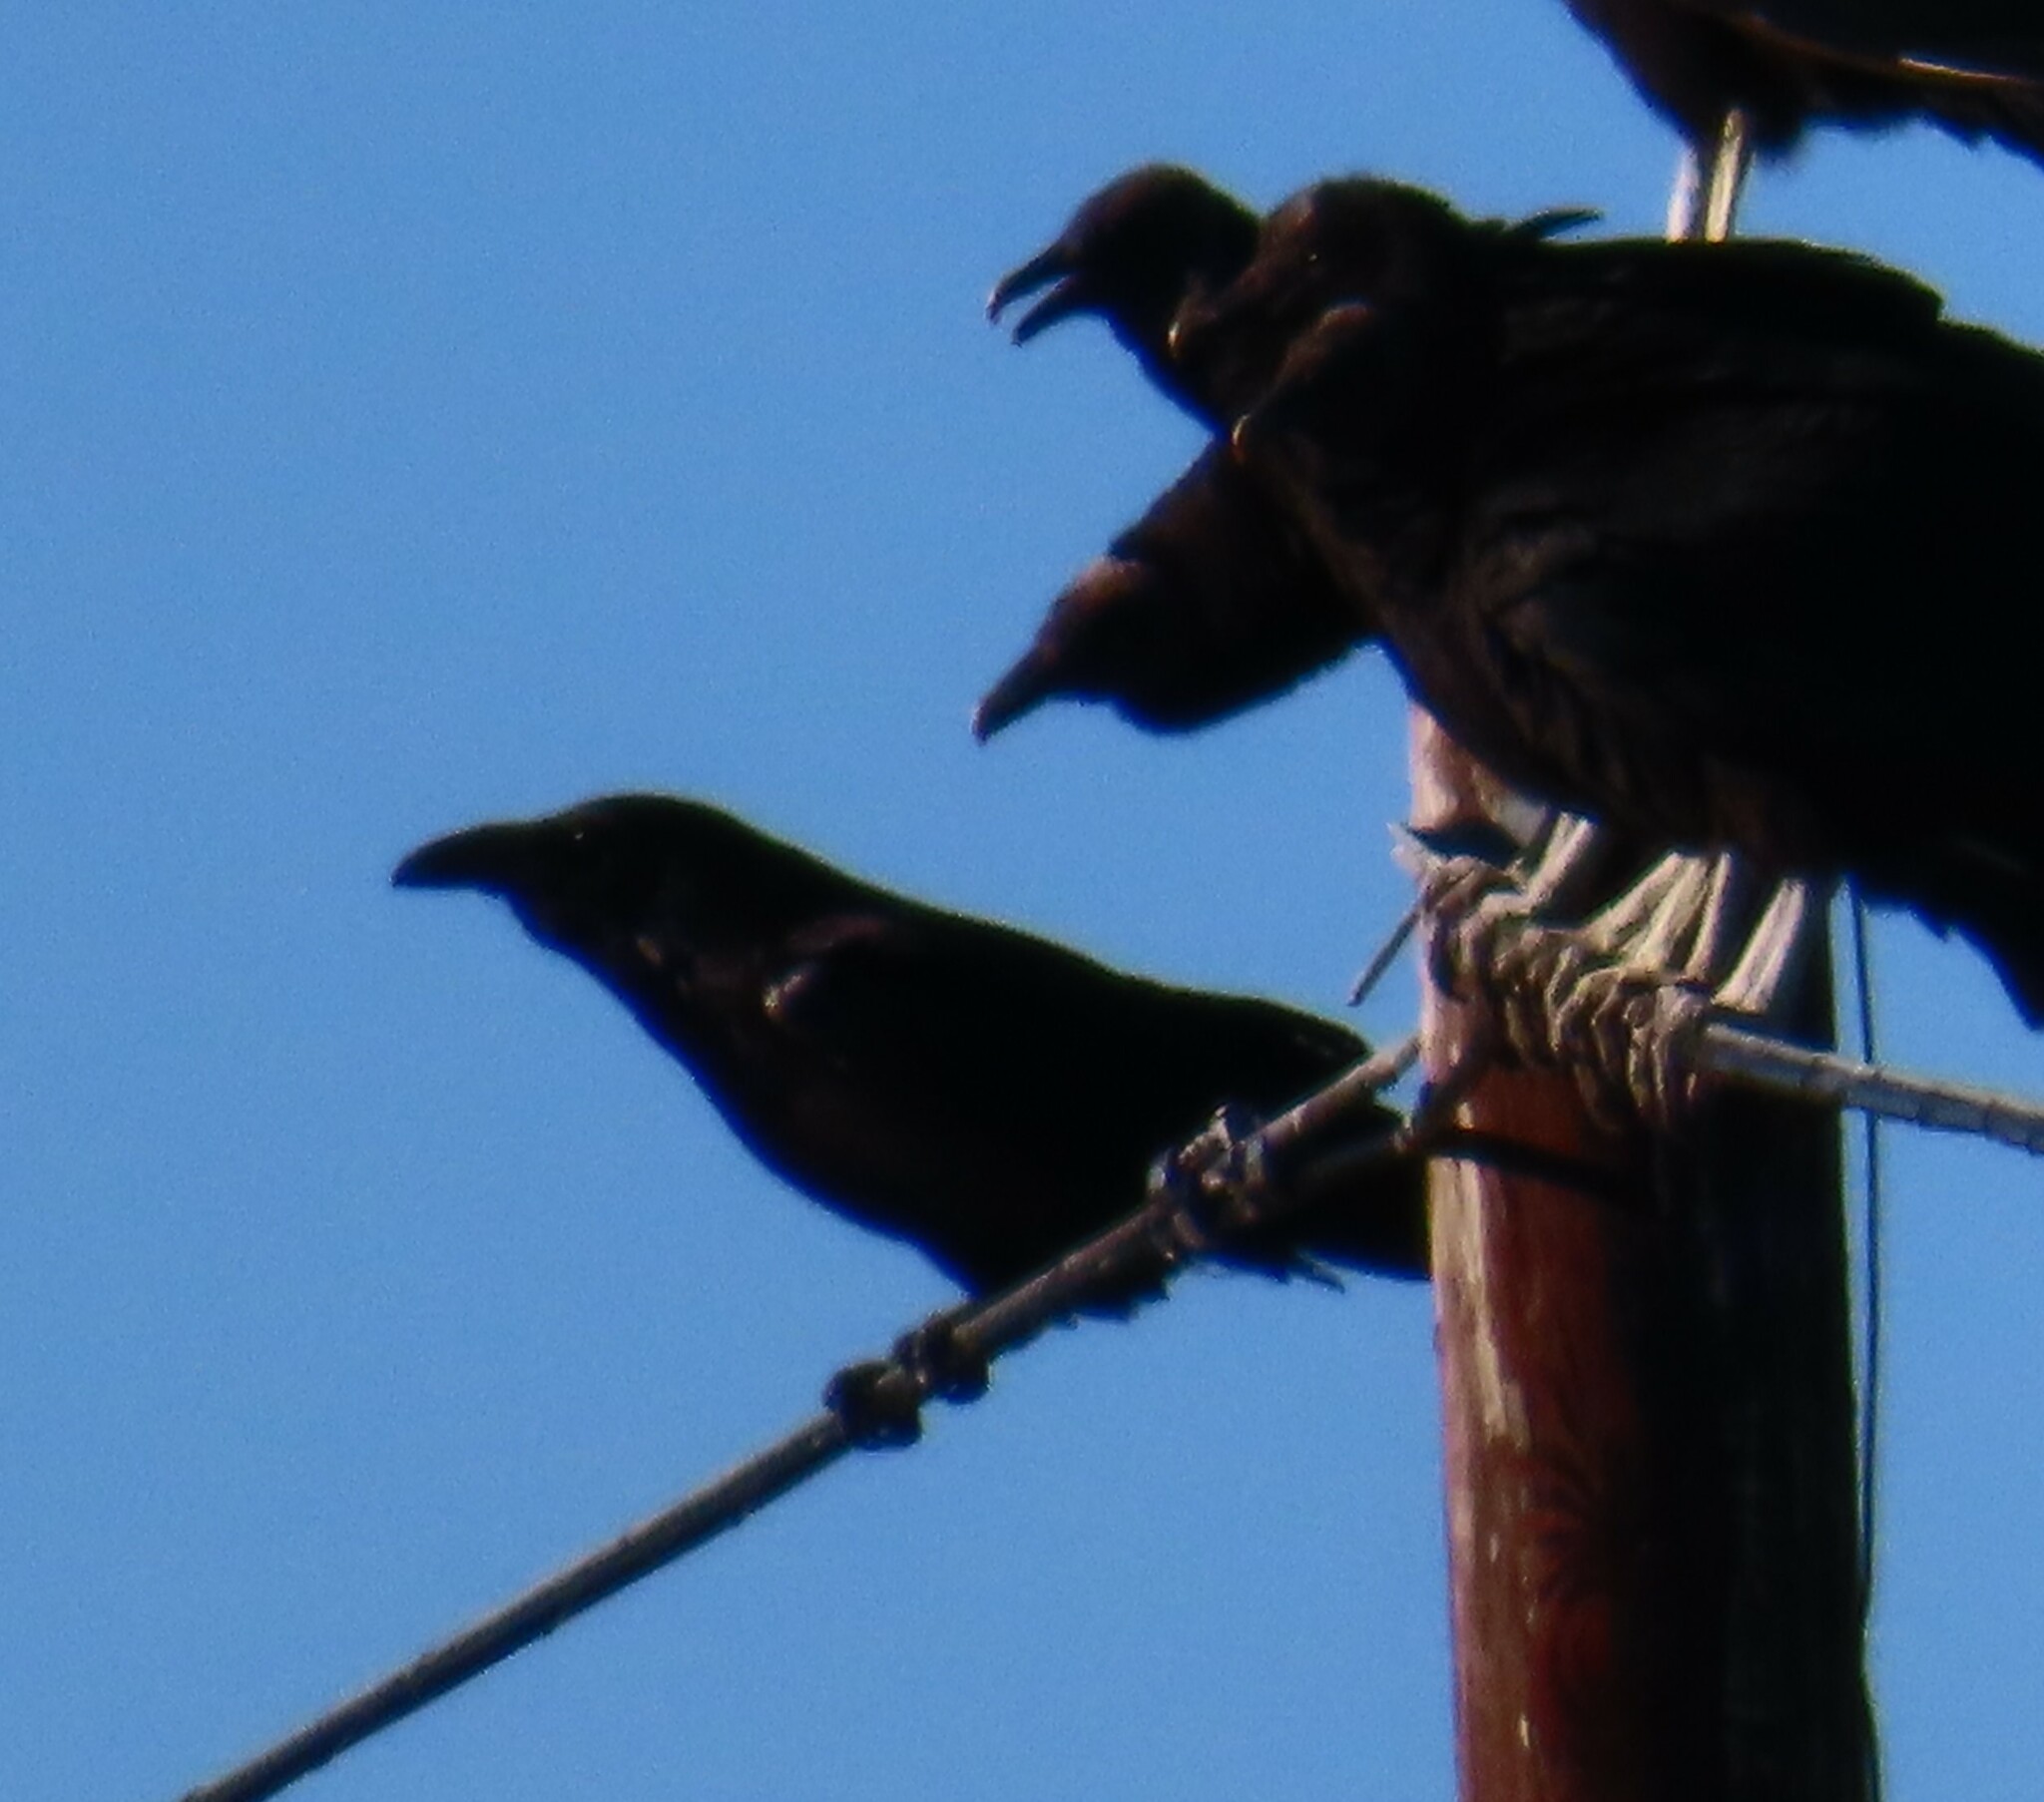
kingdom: Animalia
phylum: Chordata
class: Aves
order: Passeriformes
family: Corvidae
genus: Corvus
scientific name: Corvus corax
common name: Common raven
